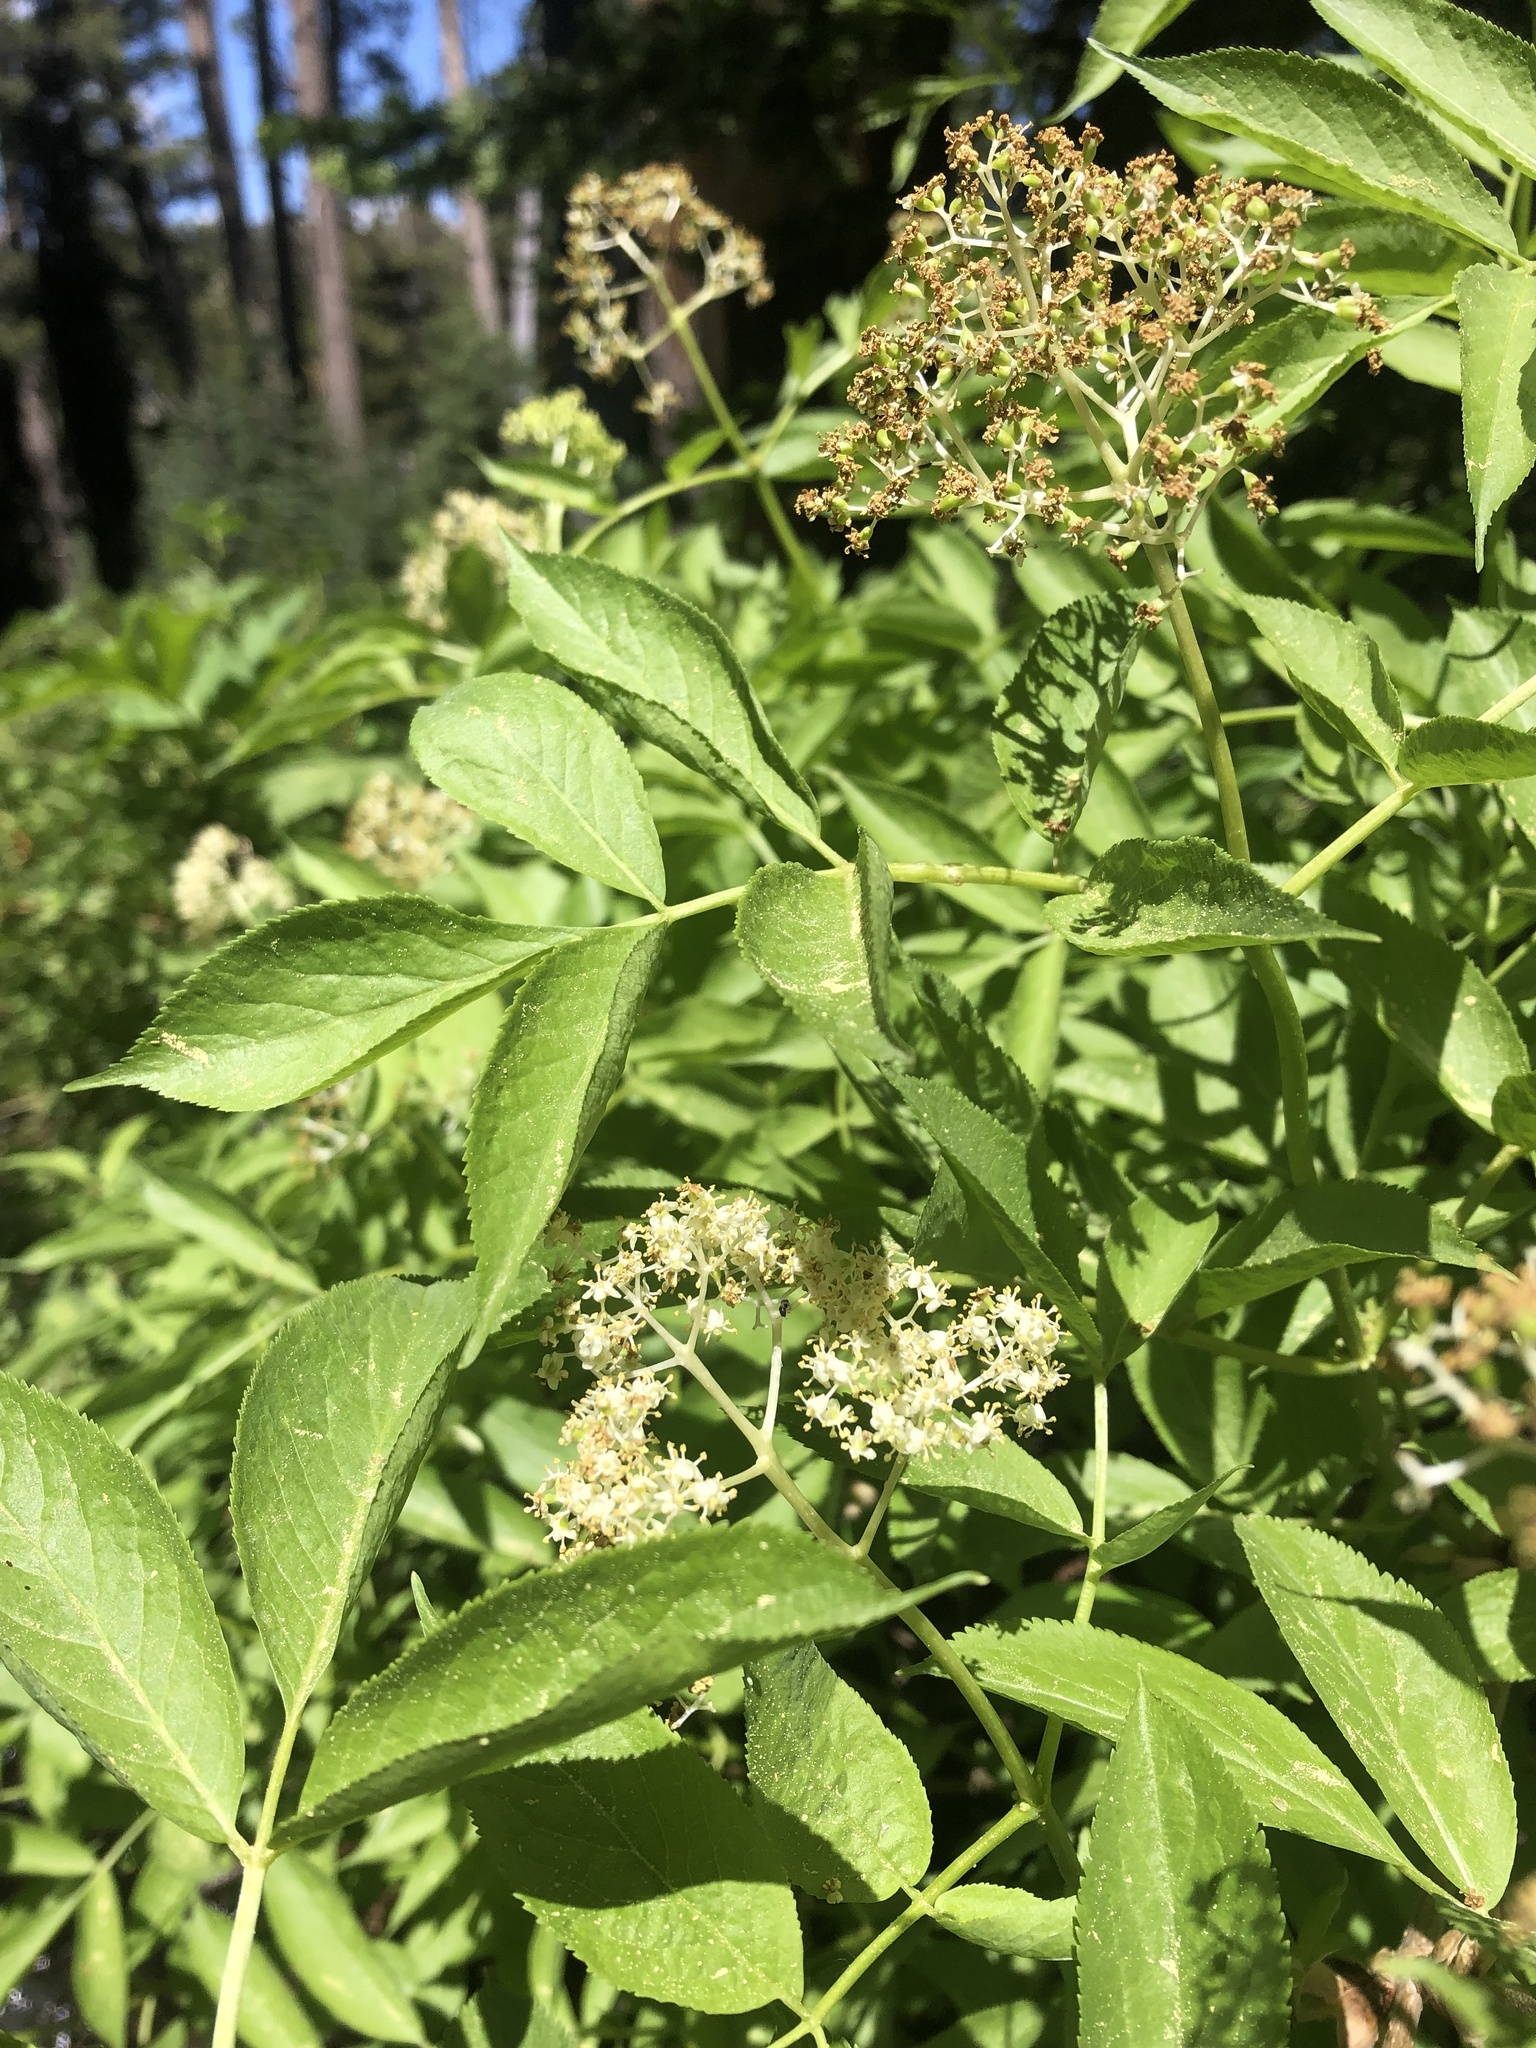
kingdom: Plantae
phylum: Tracheophyta
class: Magnoliopsida
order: Dipsacales
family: Viburnaceae
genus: Sambucus
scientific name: Sambucus racemosa
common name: Red-berried elder
